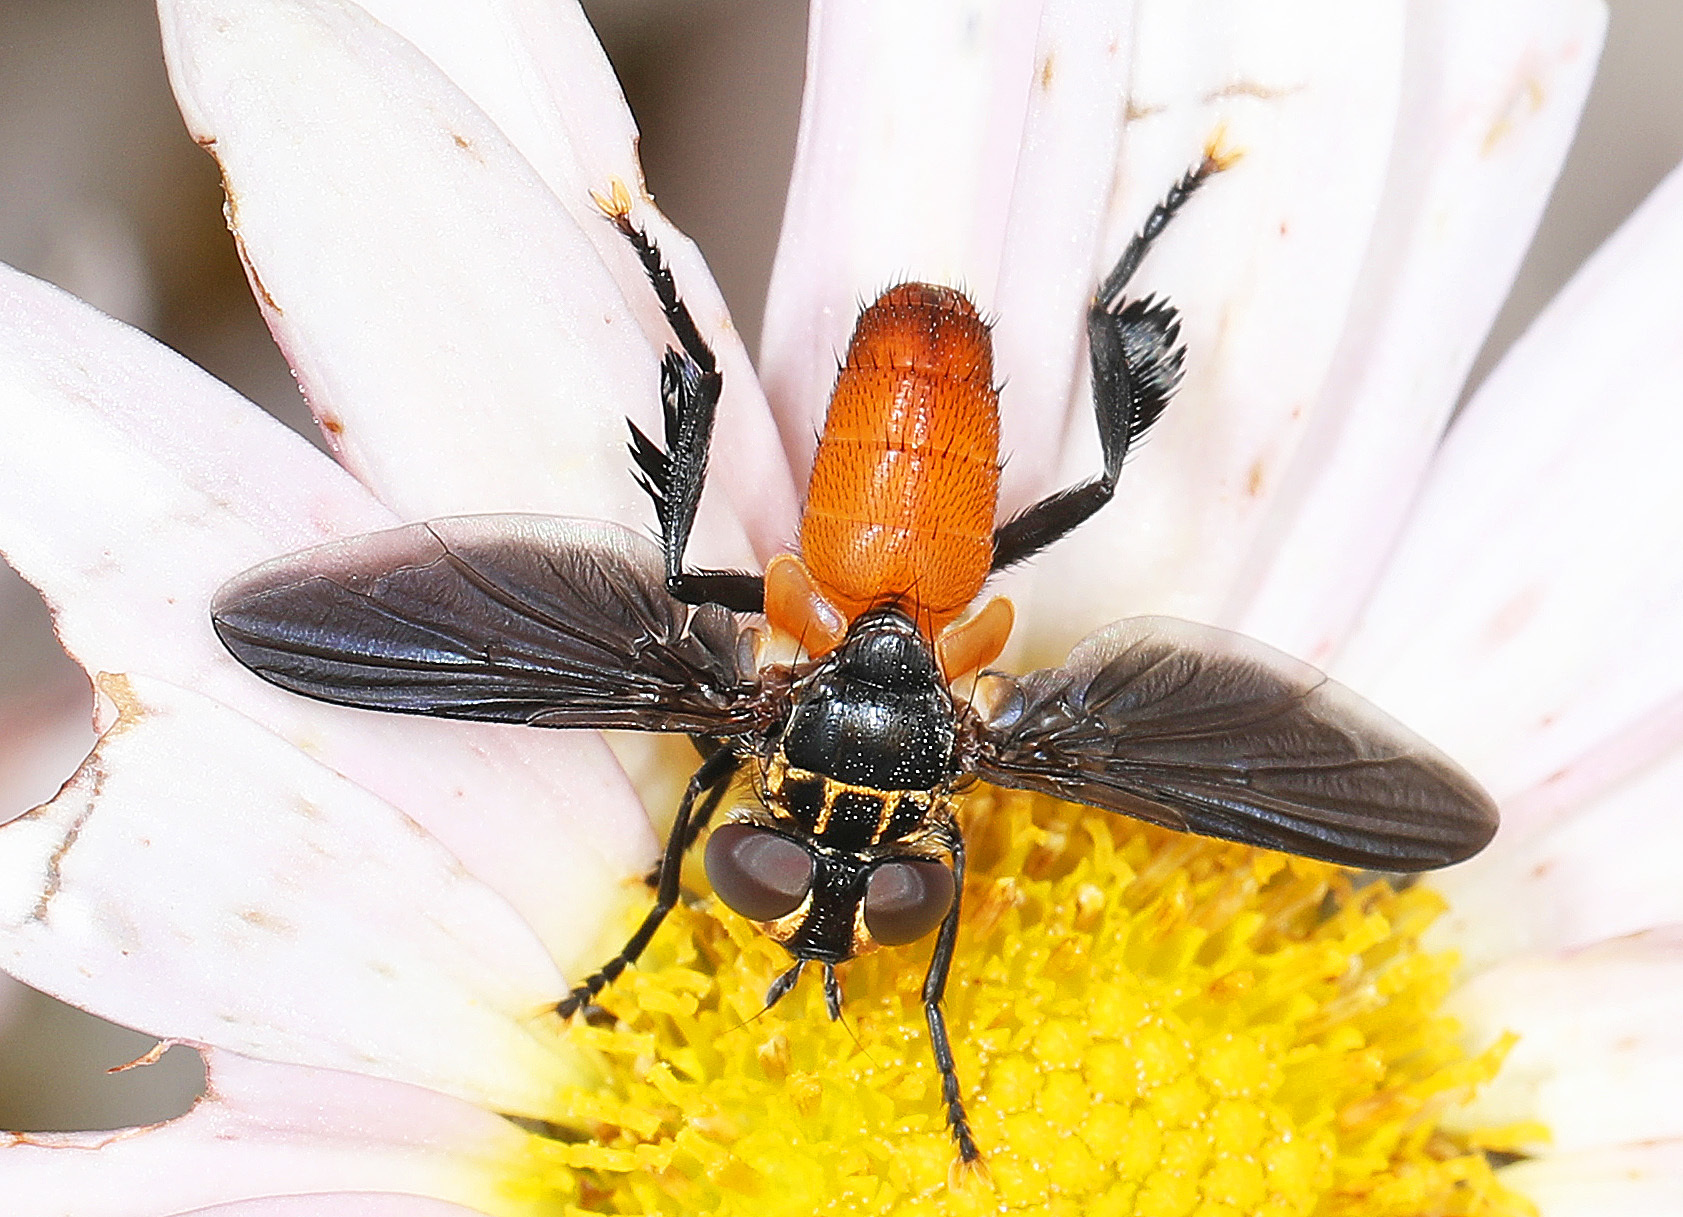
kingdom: Animalia
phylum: Arthropoda
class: Insecta
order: Diptera
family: Tachinidae
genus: Trichopoda
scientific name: Trichopoda pennipes
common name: Tachinid fly
